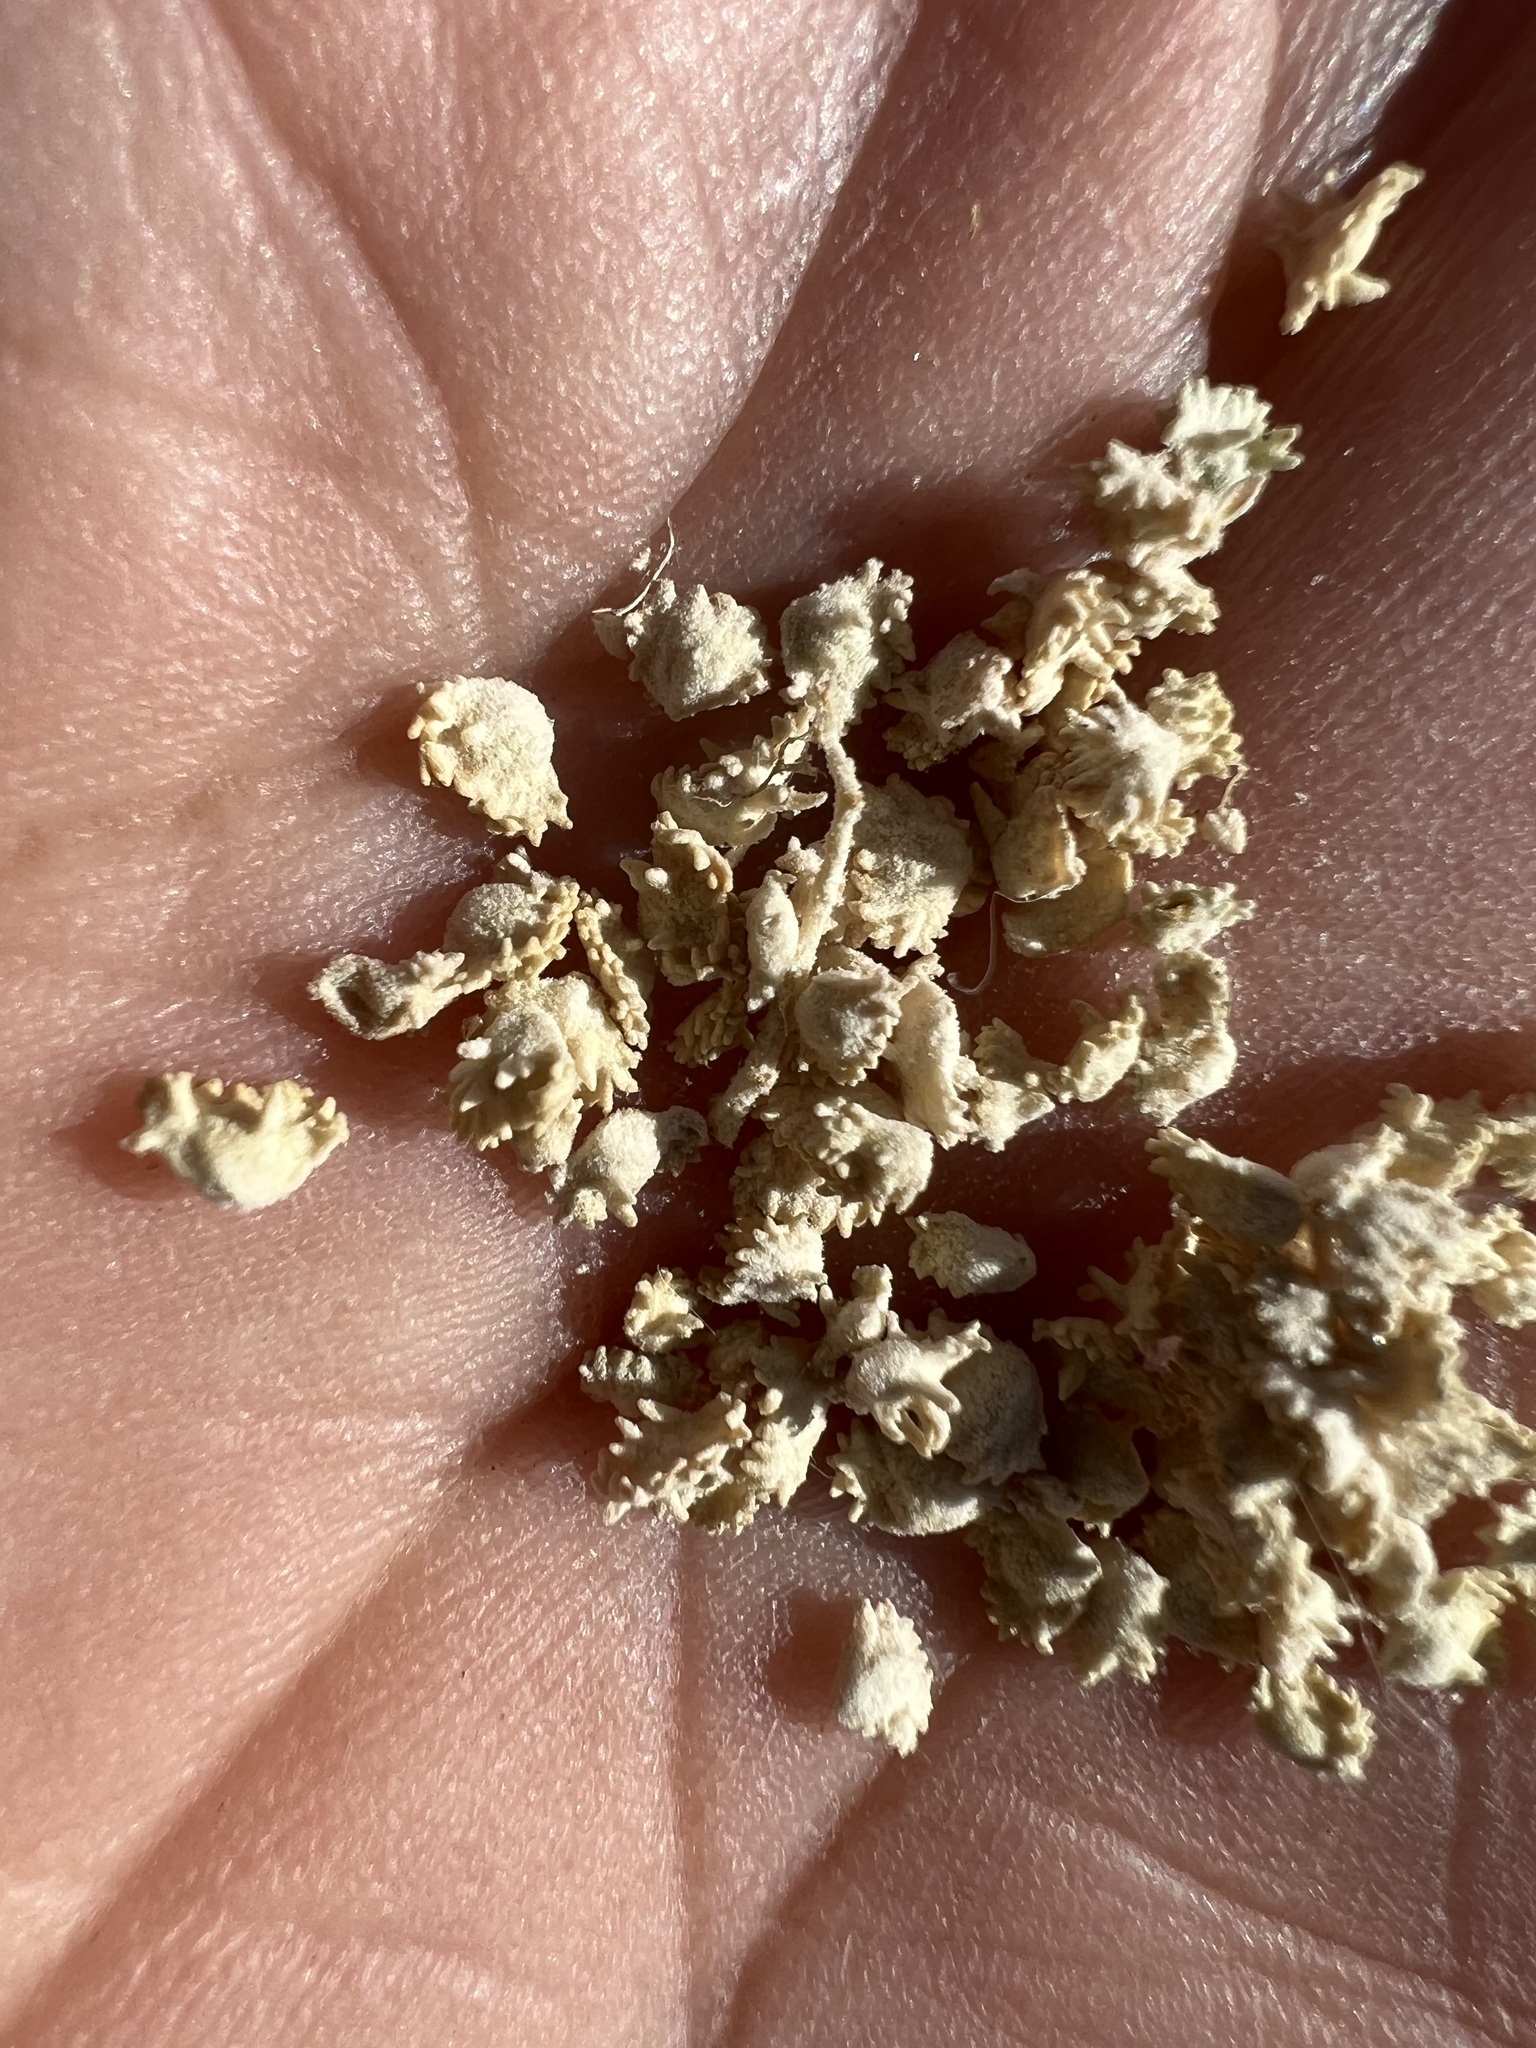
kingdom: Plantae
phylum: Tracheophyta
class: Magnoliopsida
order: Caryophyllales
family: Amaranthaceae
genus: Atriplex
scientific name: Atriplex polycarpa
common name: Desert saltbush
